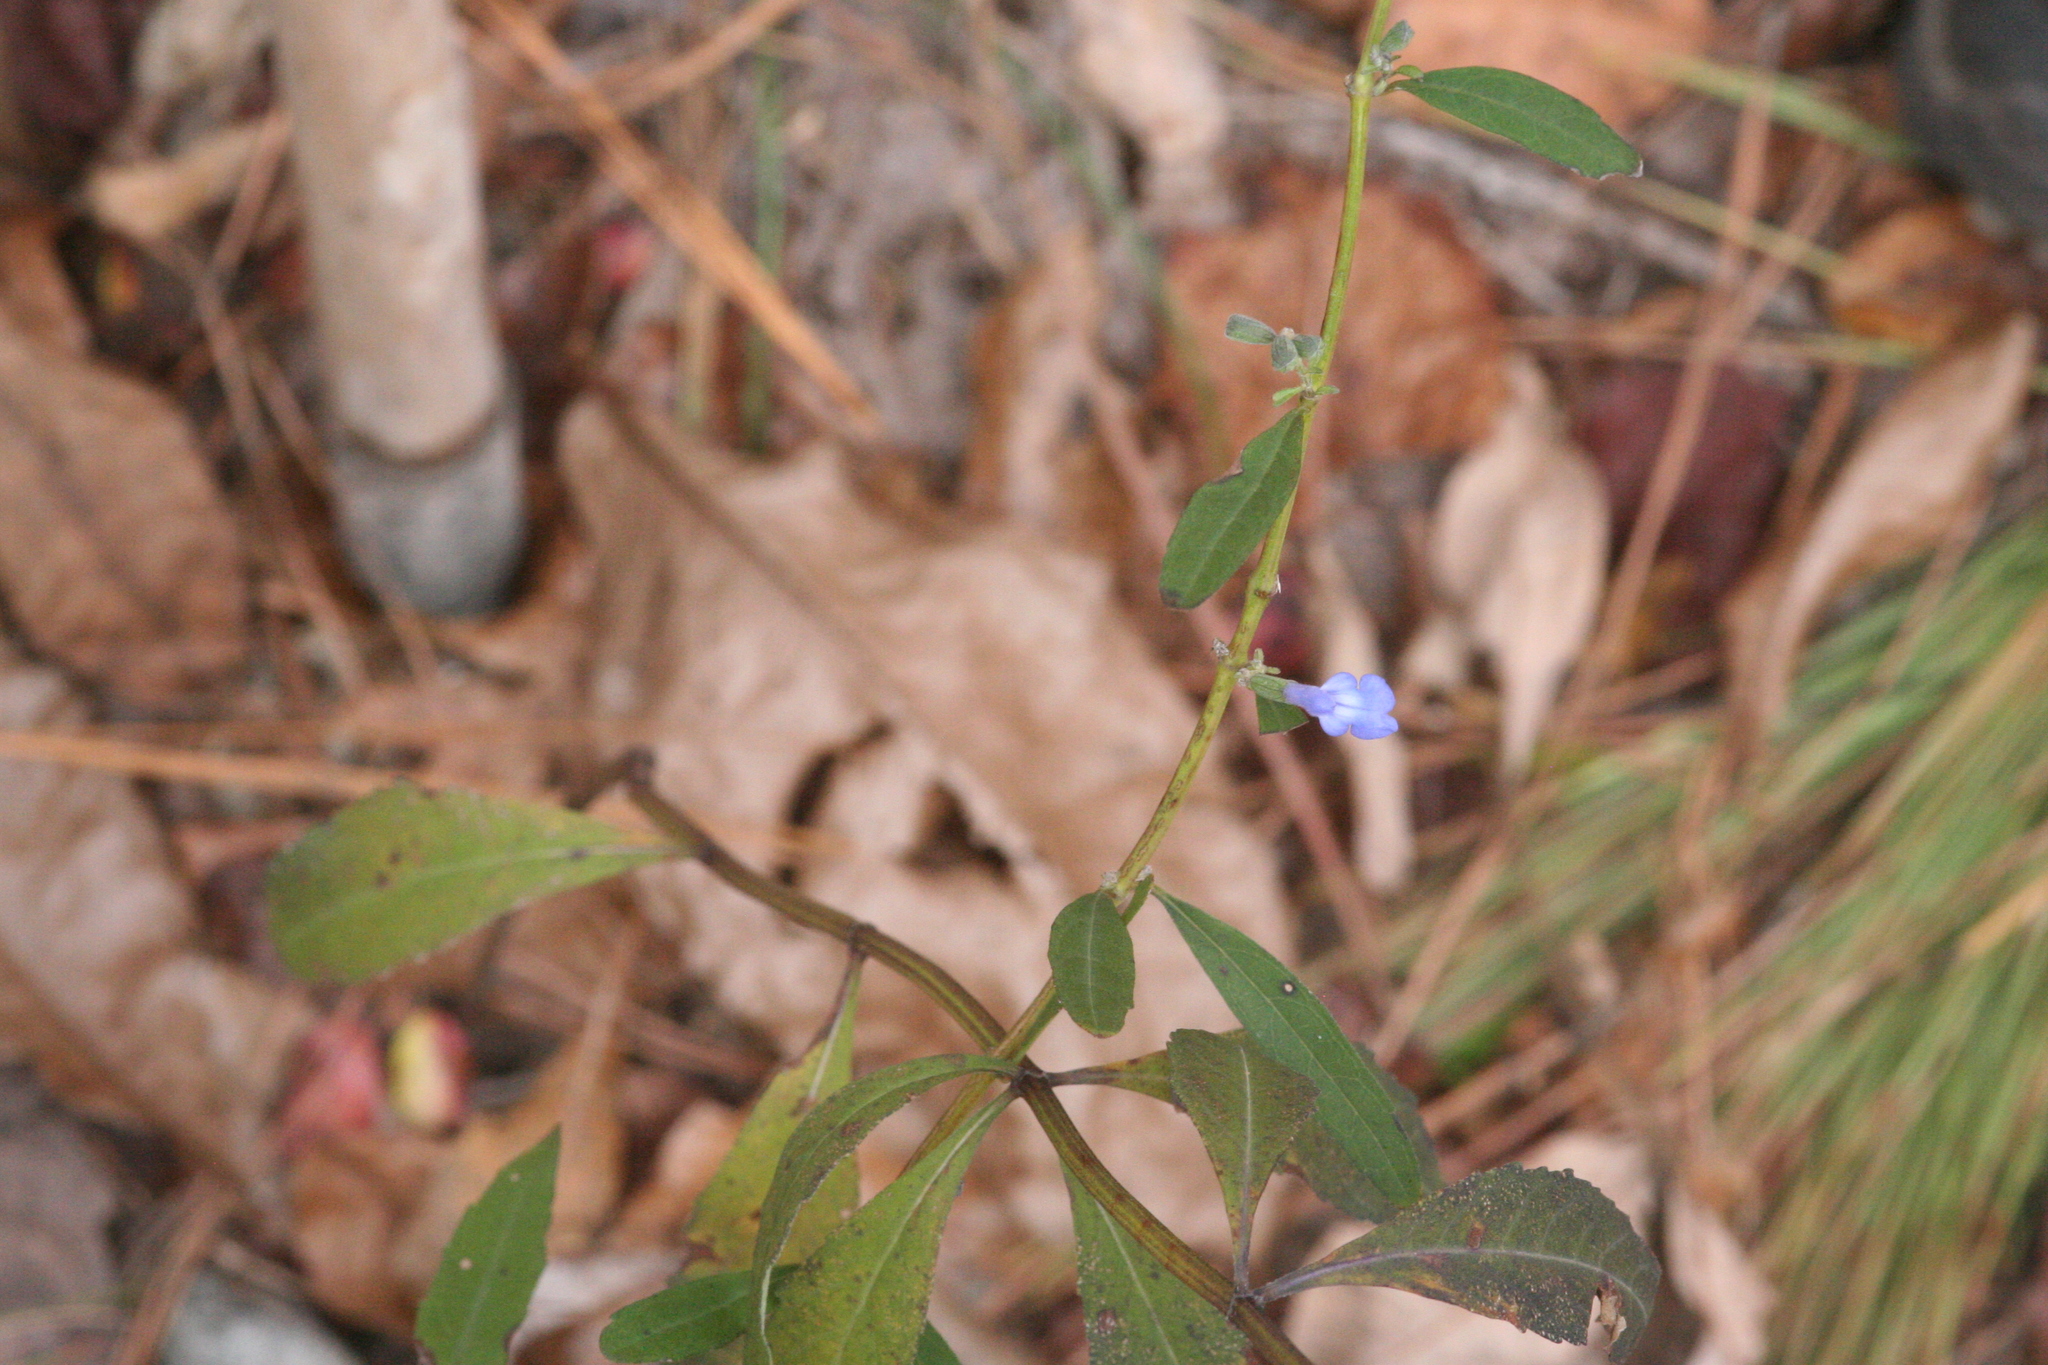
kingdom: Plantae
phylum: Tracheophyta
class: Magnoliopsida
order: Lamiales
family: Lamiaceae
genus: Salvia
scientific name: Salvia azurea
